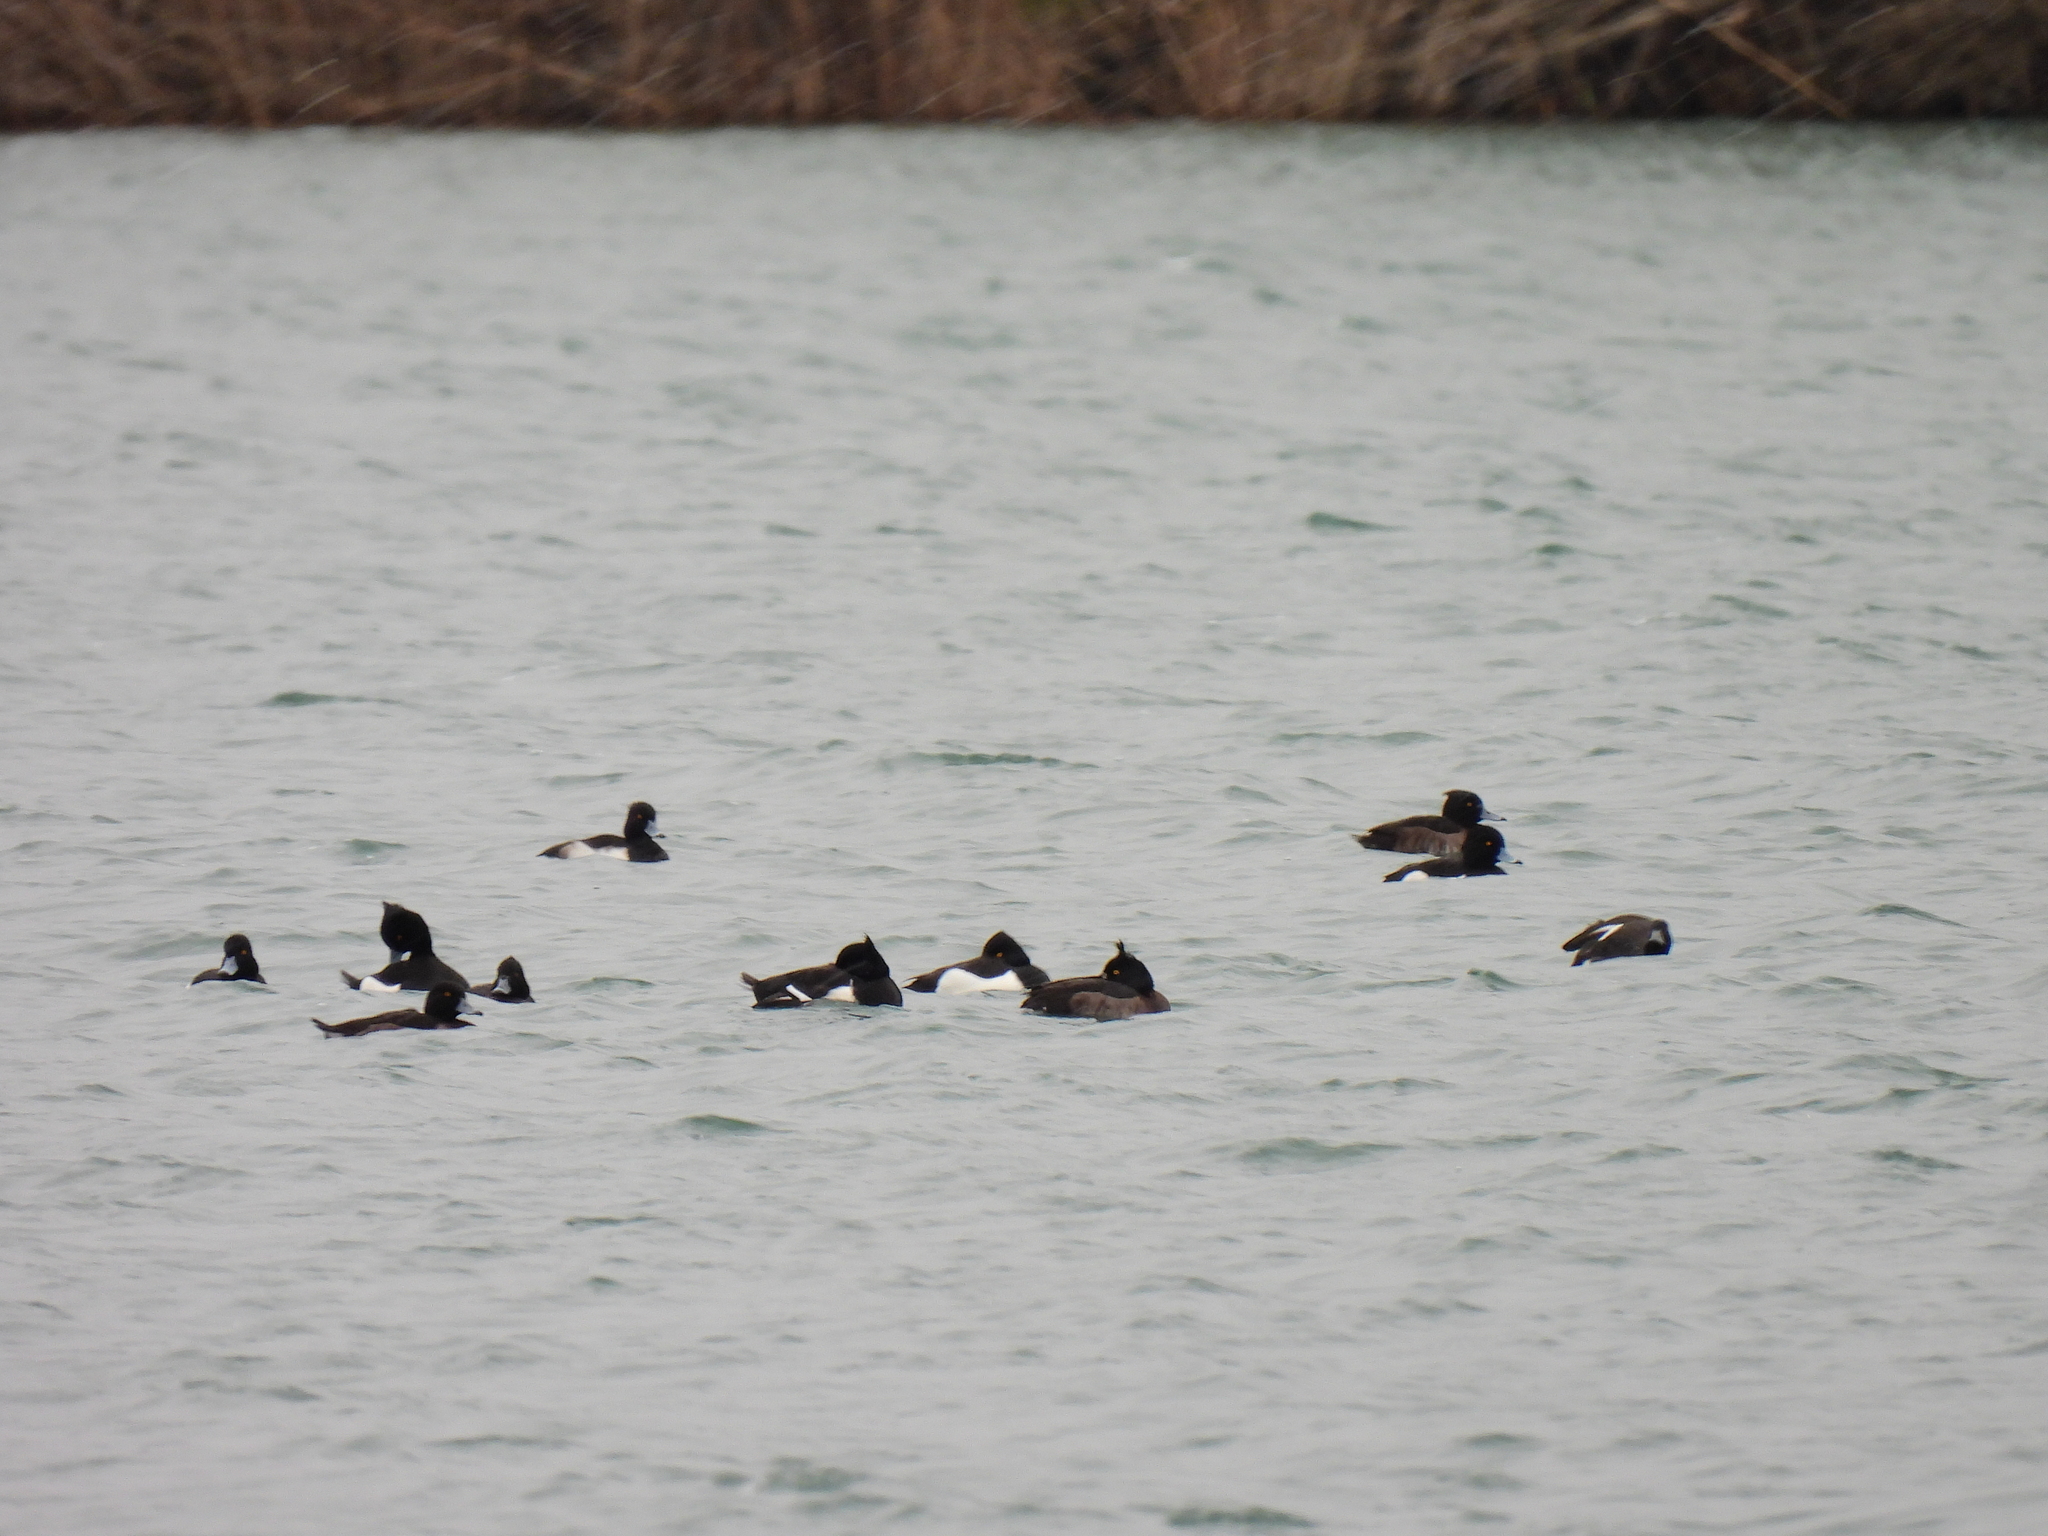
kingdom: Animalia
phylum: Chordata
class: Aves
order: Anseriformes
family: Anatidae
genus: Aythya
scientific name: Aythya fuligula
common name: Tufted duck
